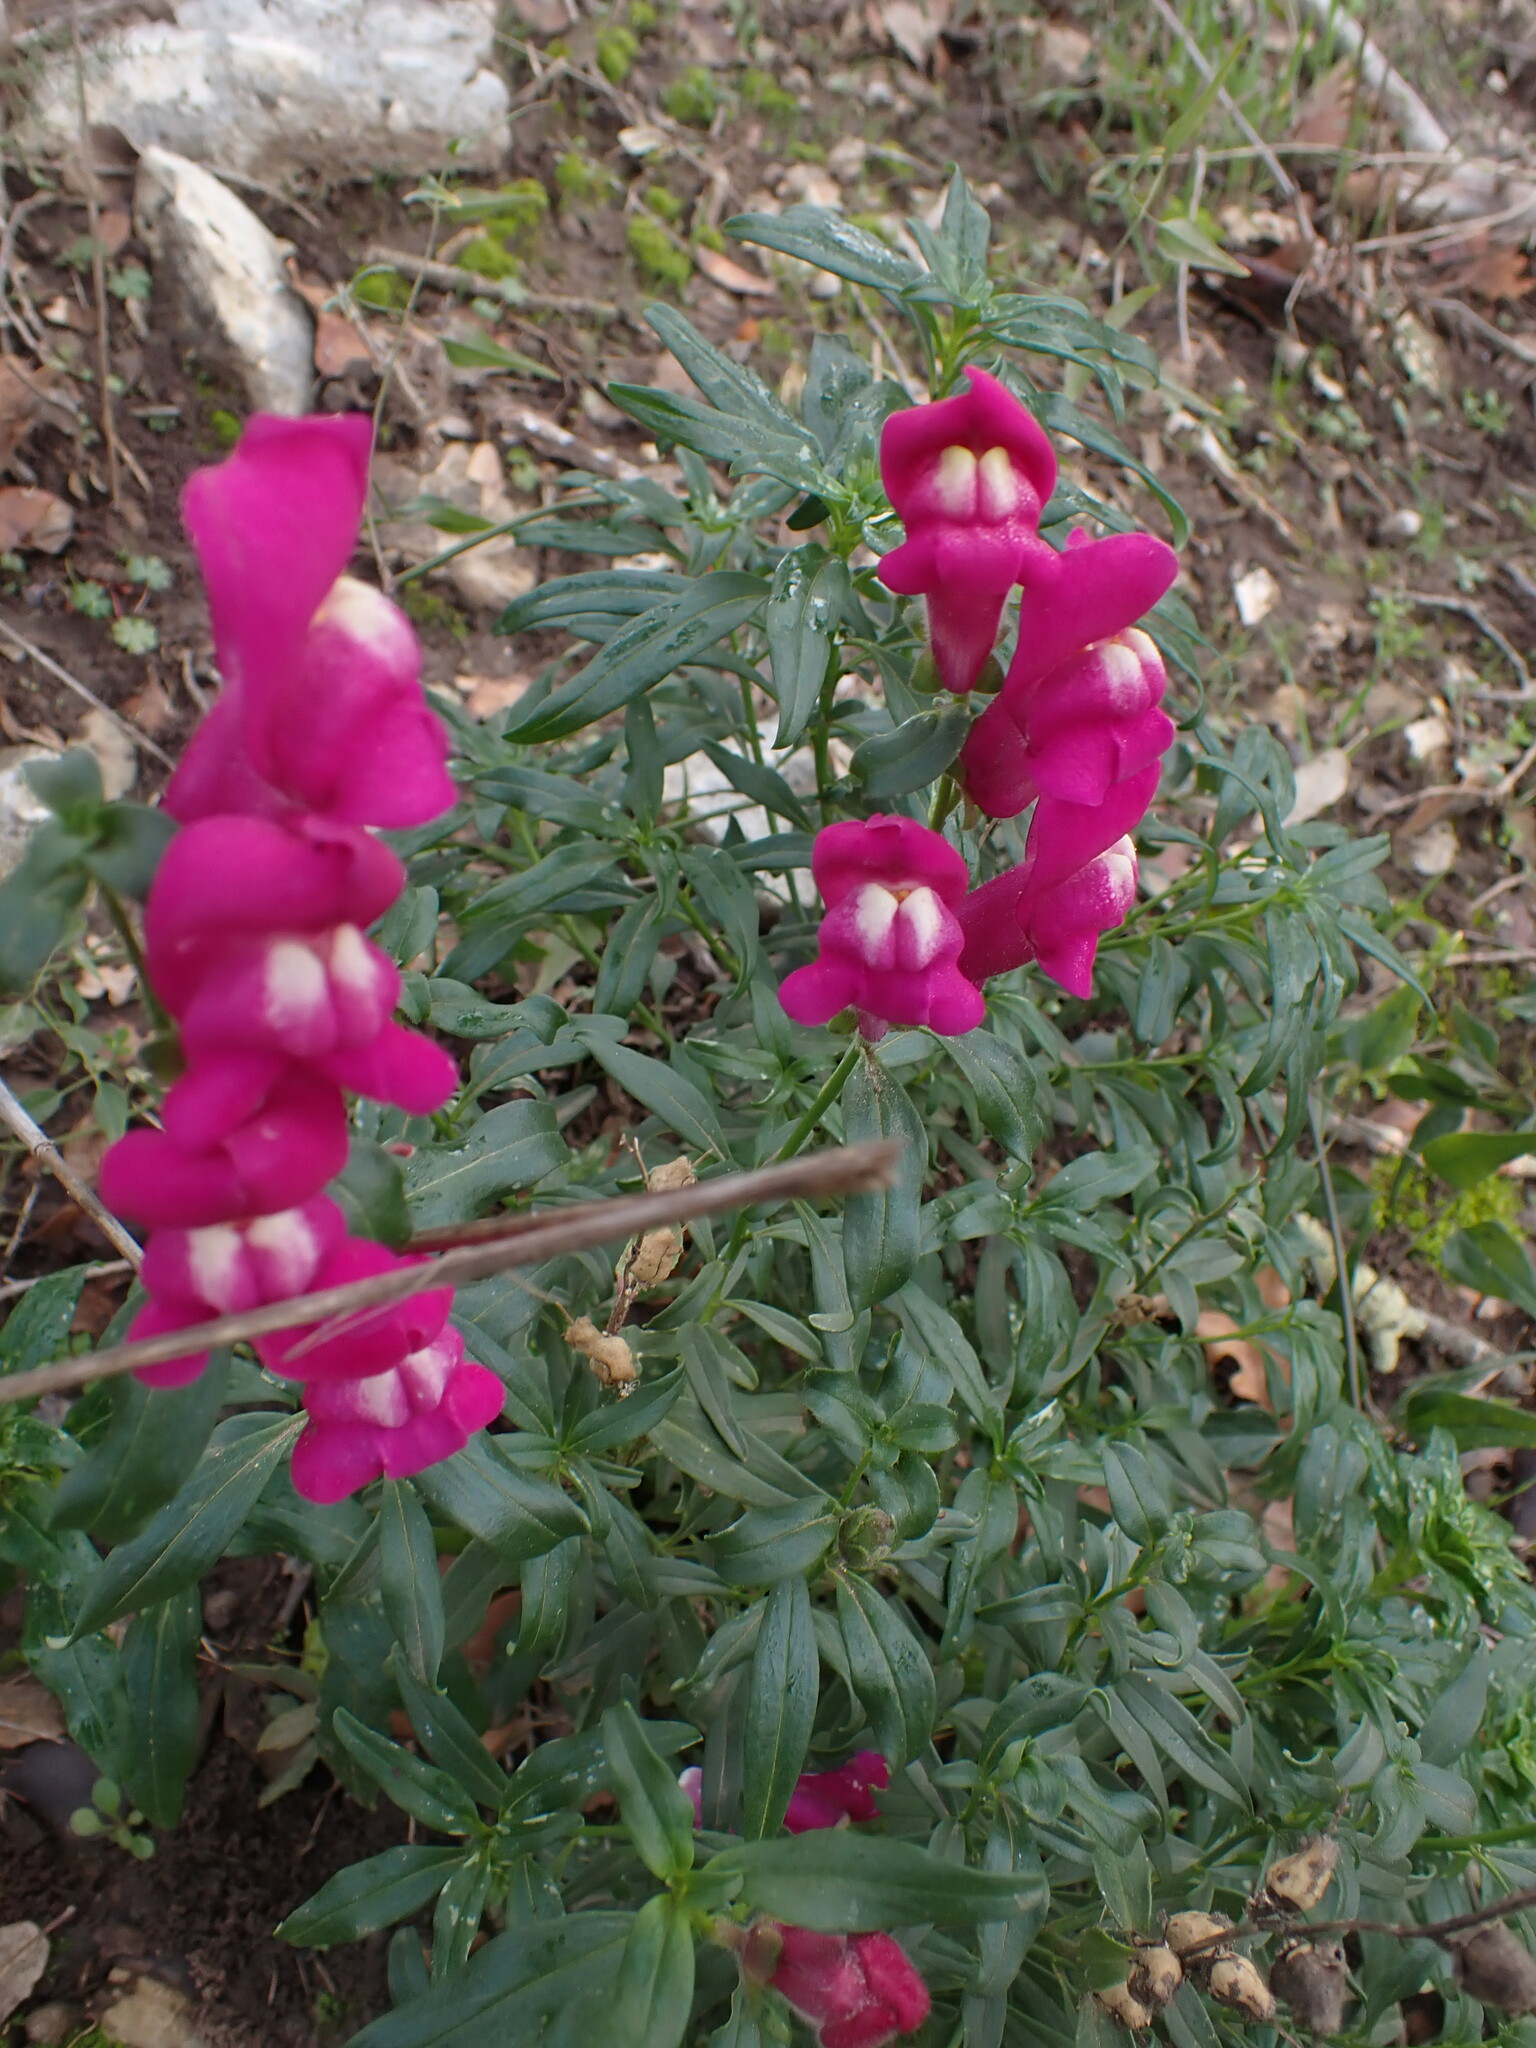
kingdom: Plantae
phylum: Tracheophyta
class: Magnoliopsida
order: Lamiales
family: Plantaginaceae
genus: Antirrhinum
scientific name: Antirrhinum majus
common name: Snapdragon
